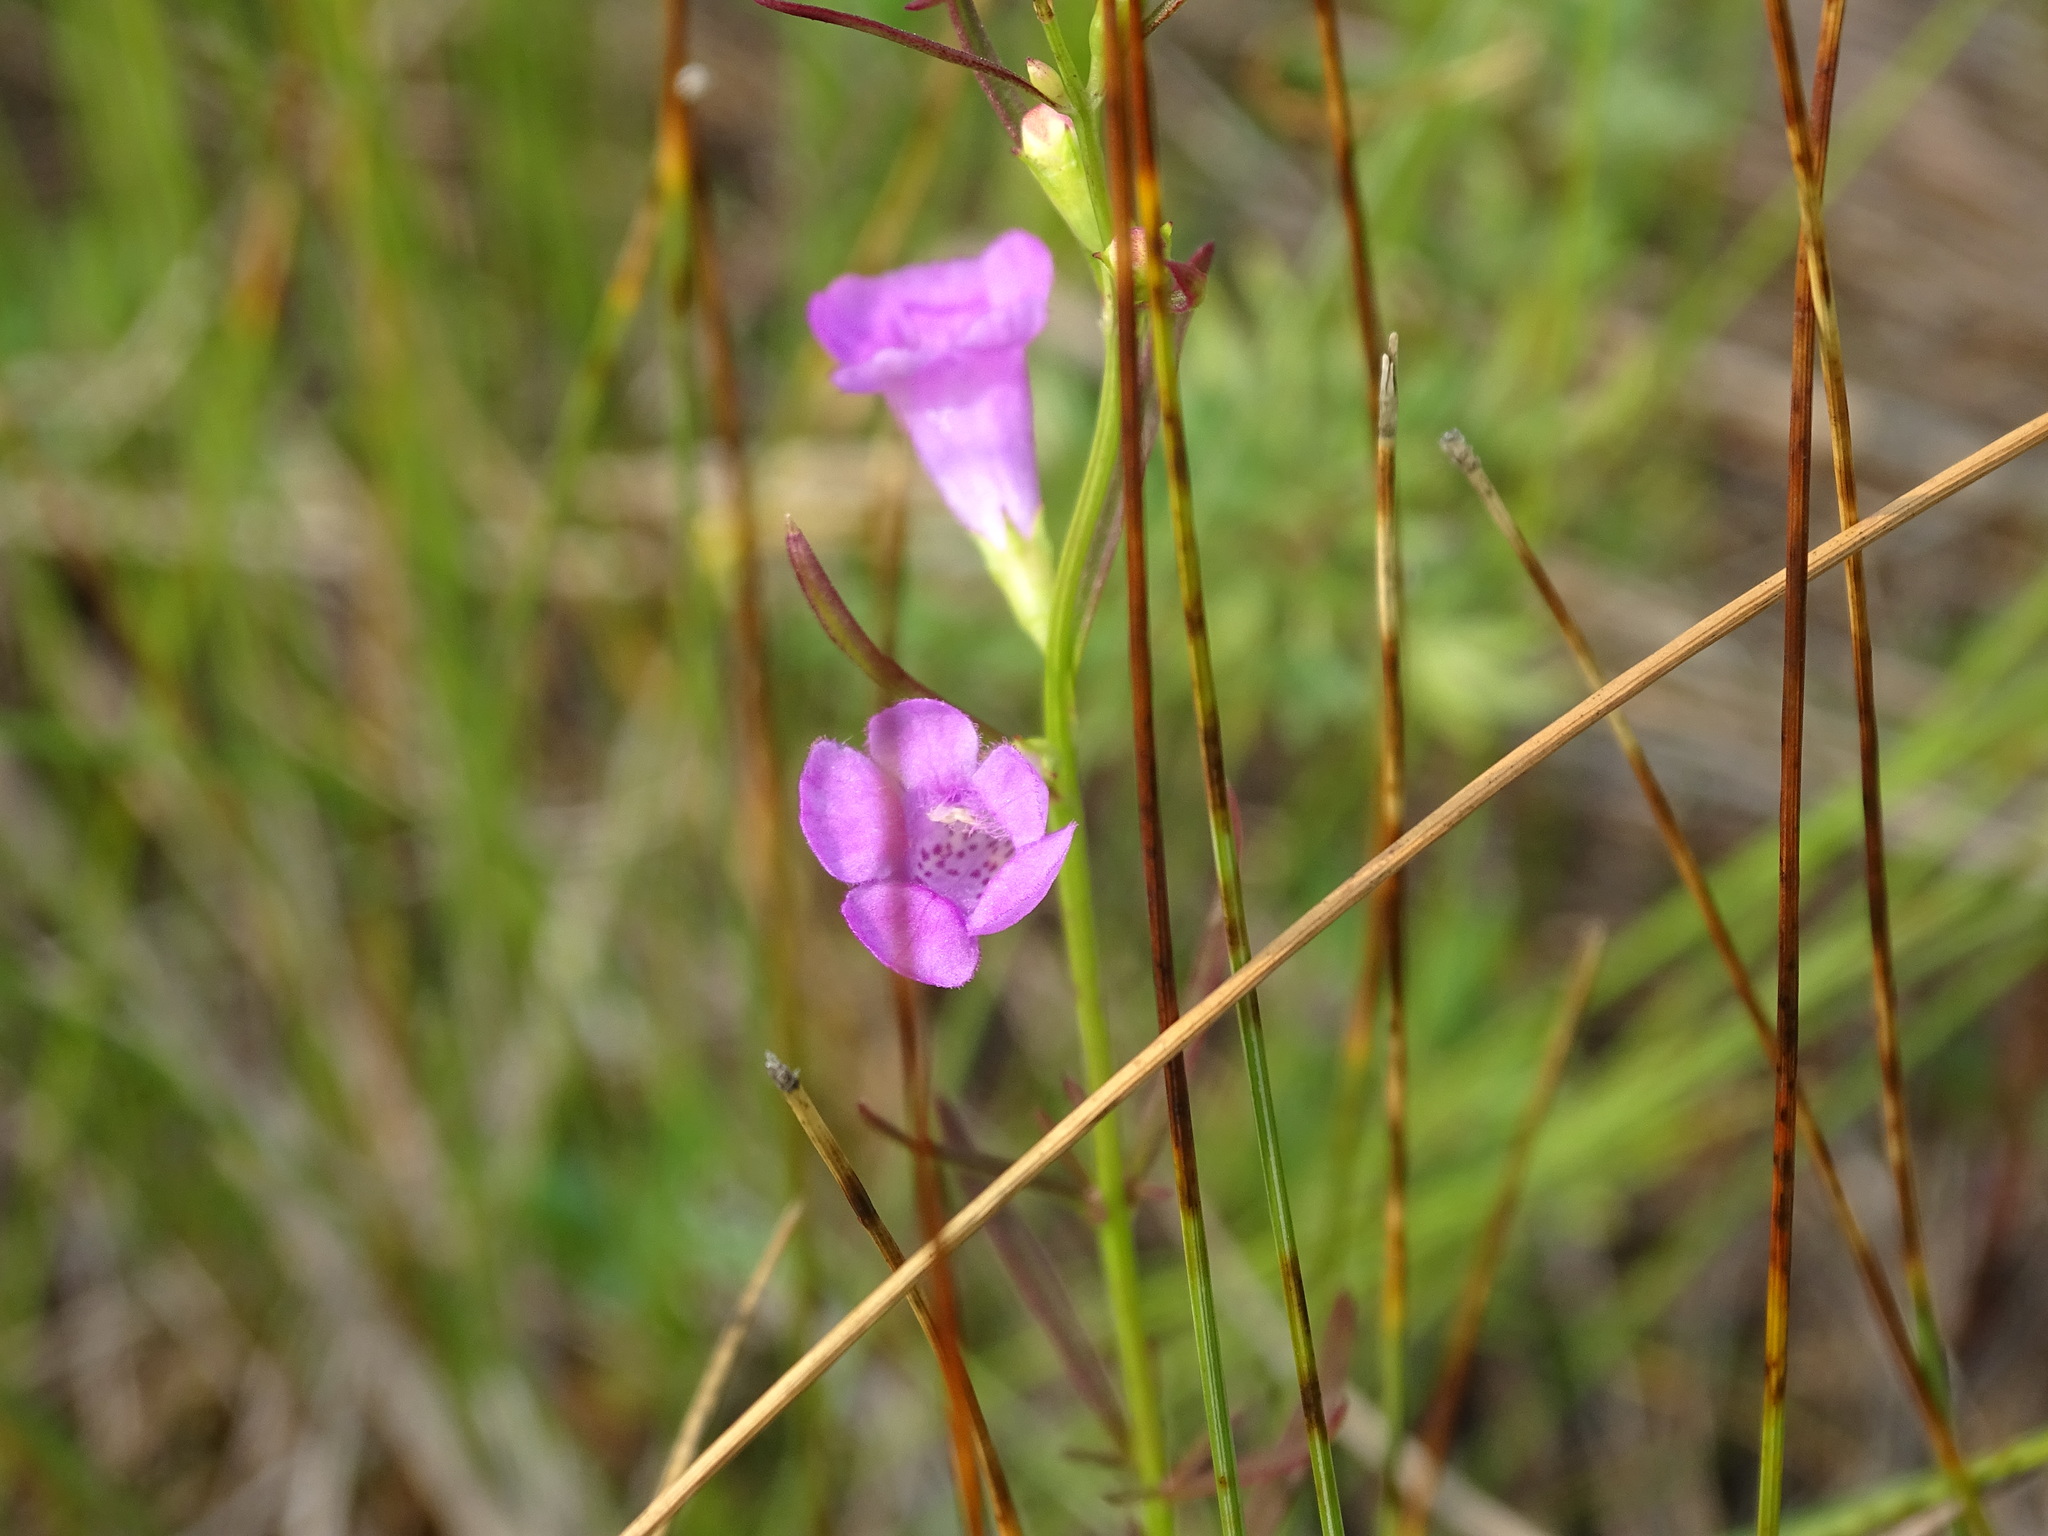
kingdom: Plantae
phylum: Tracheophyta
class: Magnoliopsida
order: Lamiales
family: Orobanchaceae
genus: Agalinis
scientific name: Agalinis purpurea
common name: Purple false foxglove
